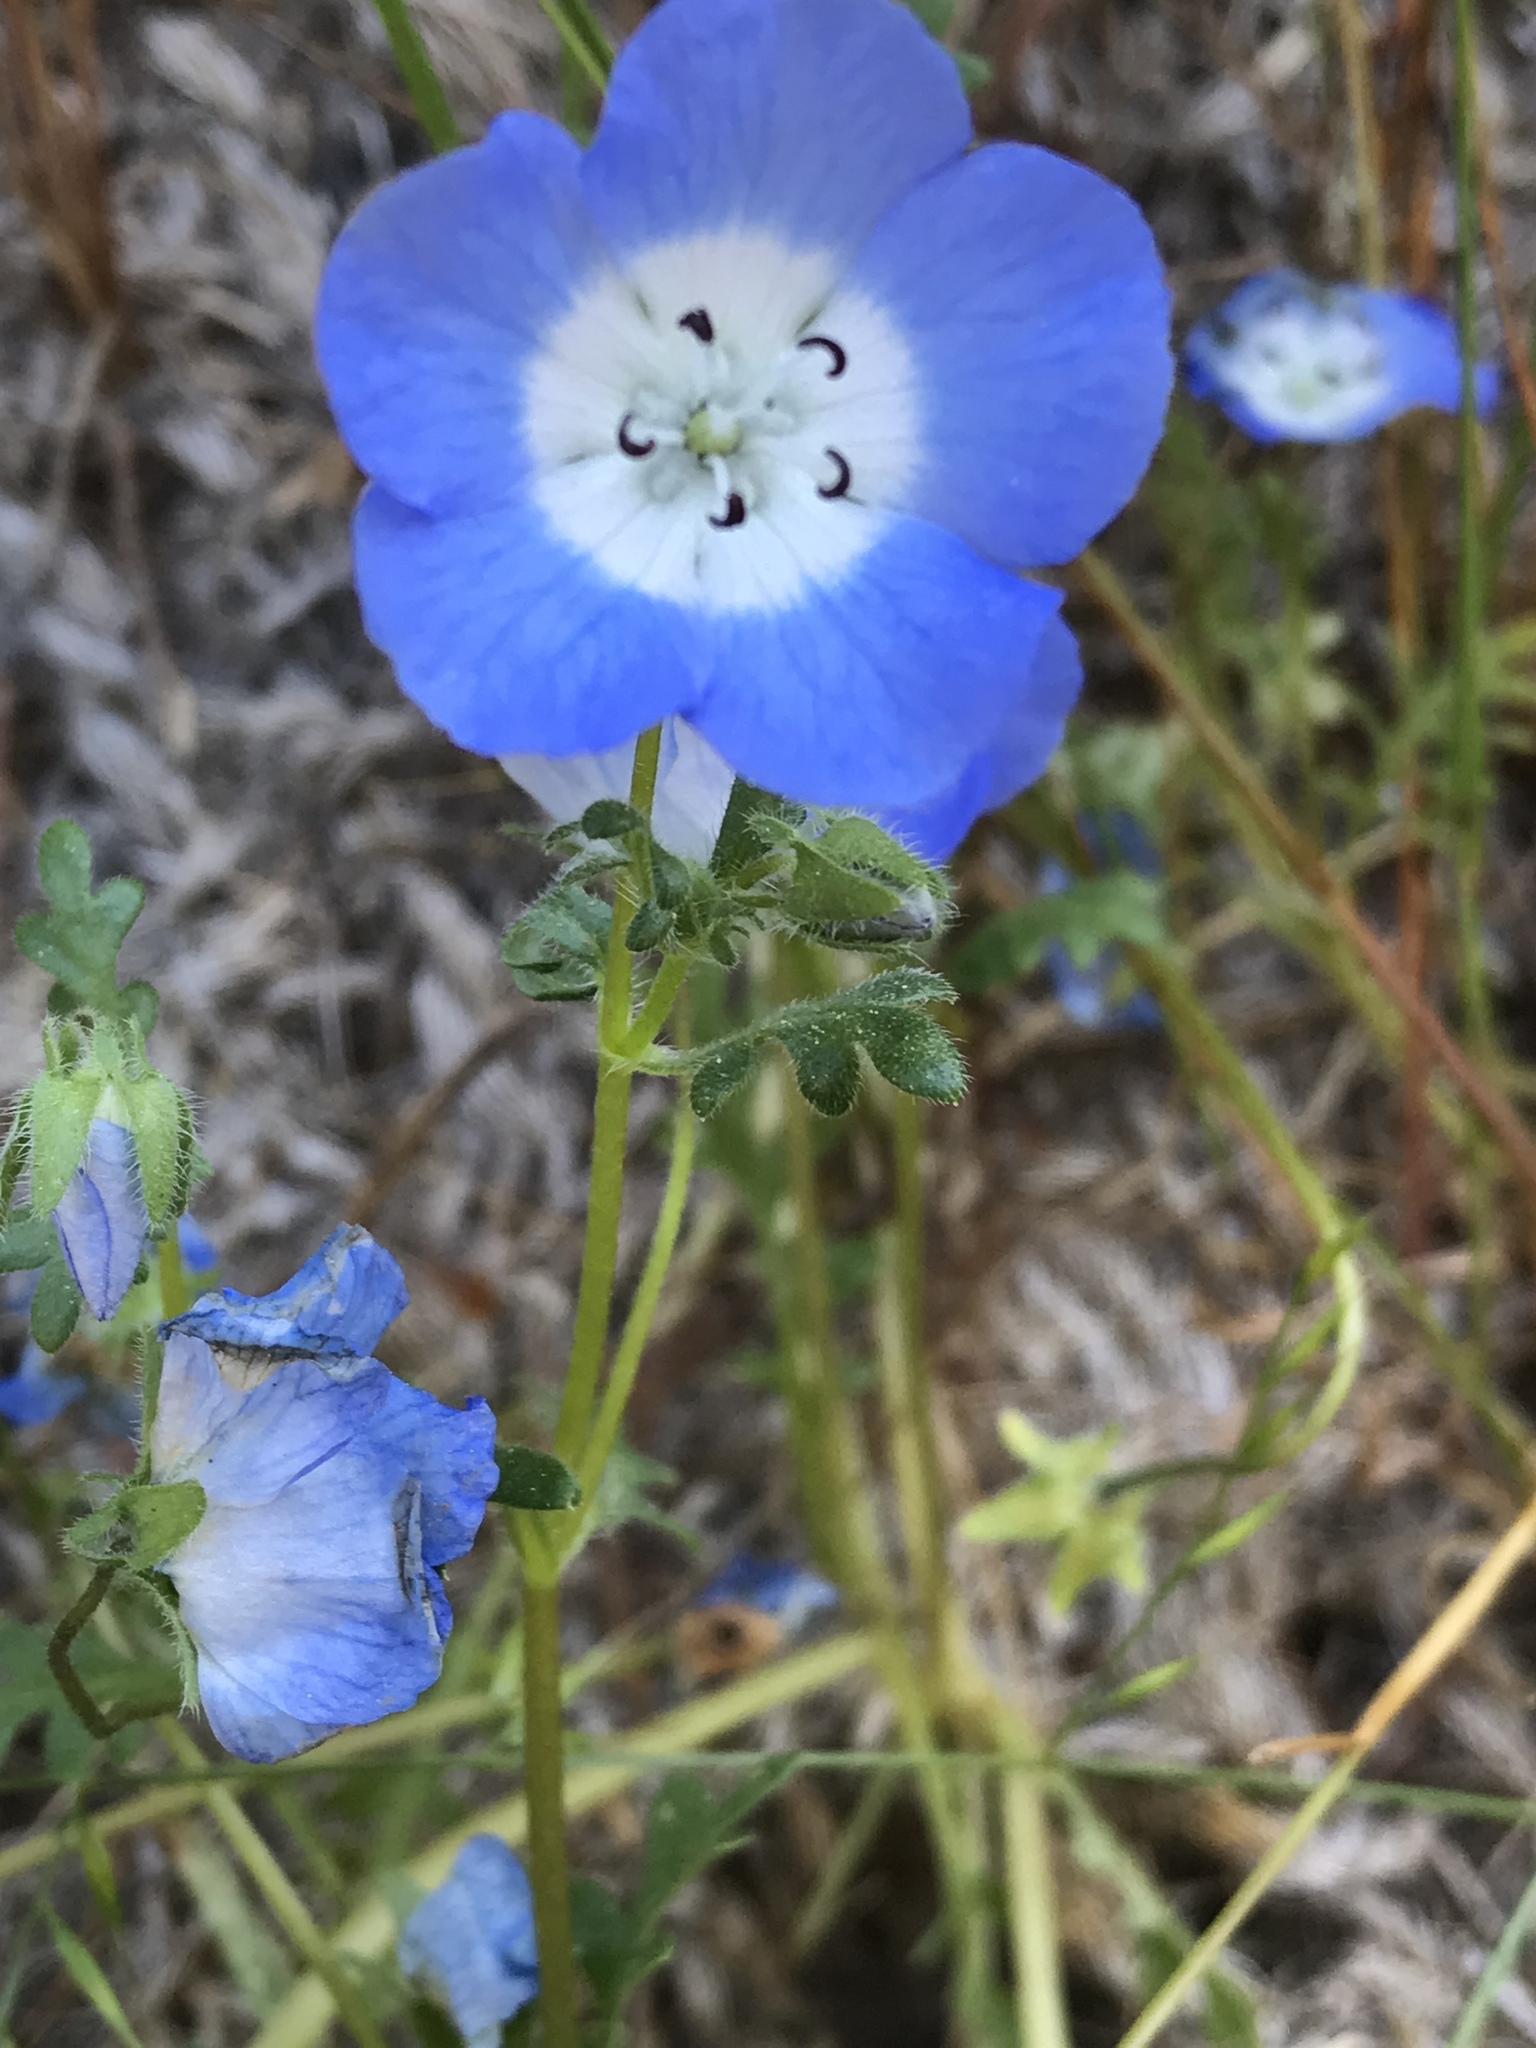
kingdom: Plantae
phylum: Tracheophyta
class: Magnoliopsida
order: Boraginales
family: Hydrophyllaceae
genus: Nemophila
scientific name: Nemophila menziesii
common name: Baby's-blue-eyes
